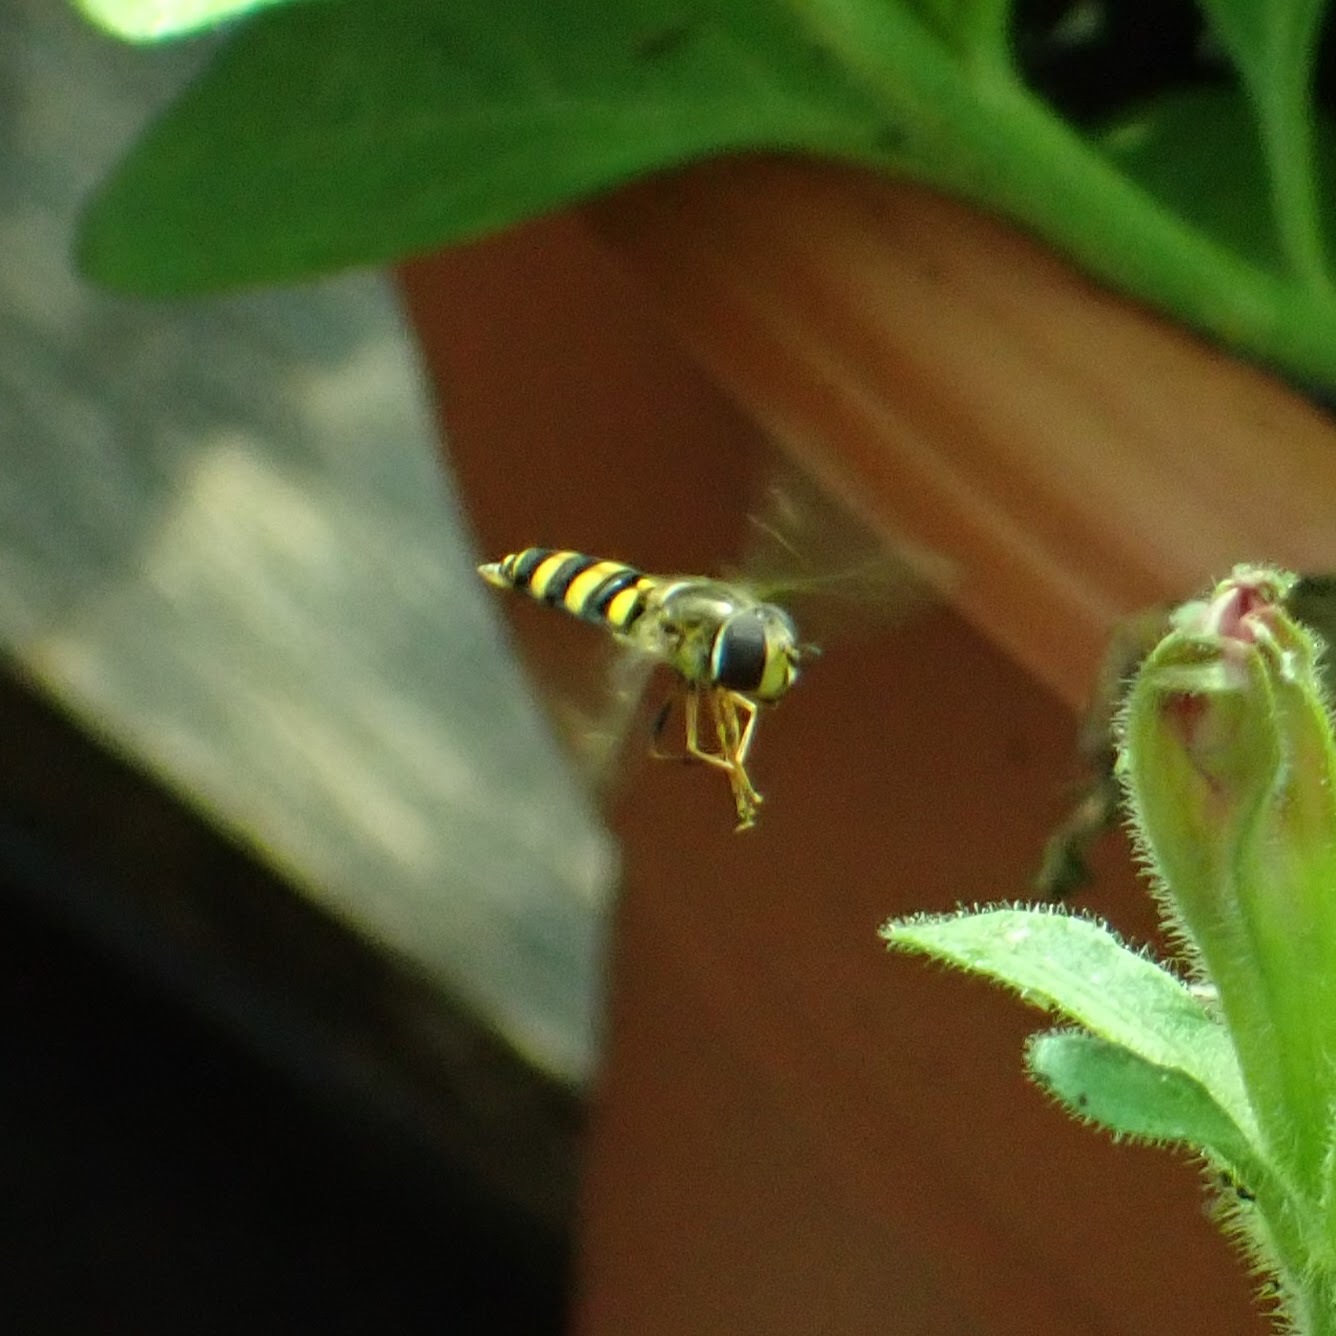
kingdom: Animalia
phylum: Arthropoda
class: Insecta
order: Diptera
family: Syrphidae
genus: Eupeodes
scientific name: Eupeodes
